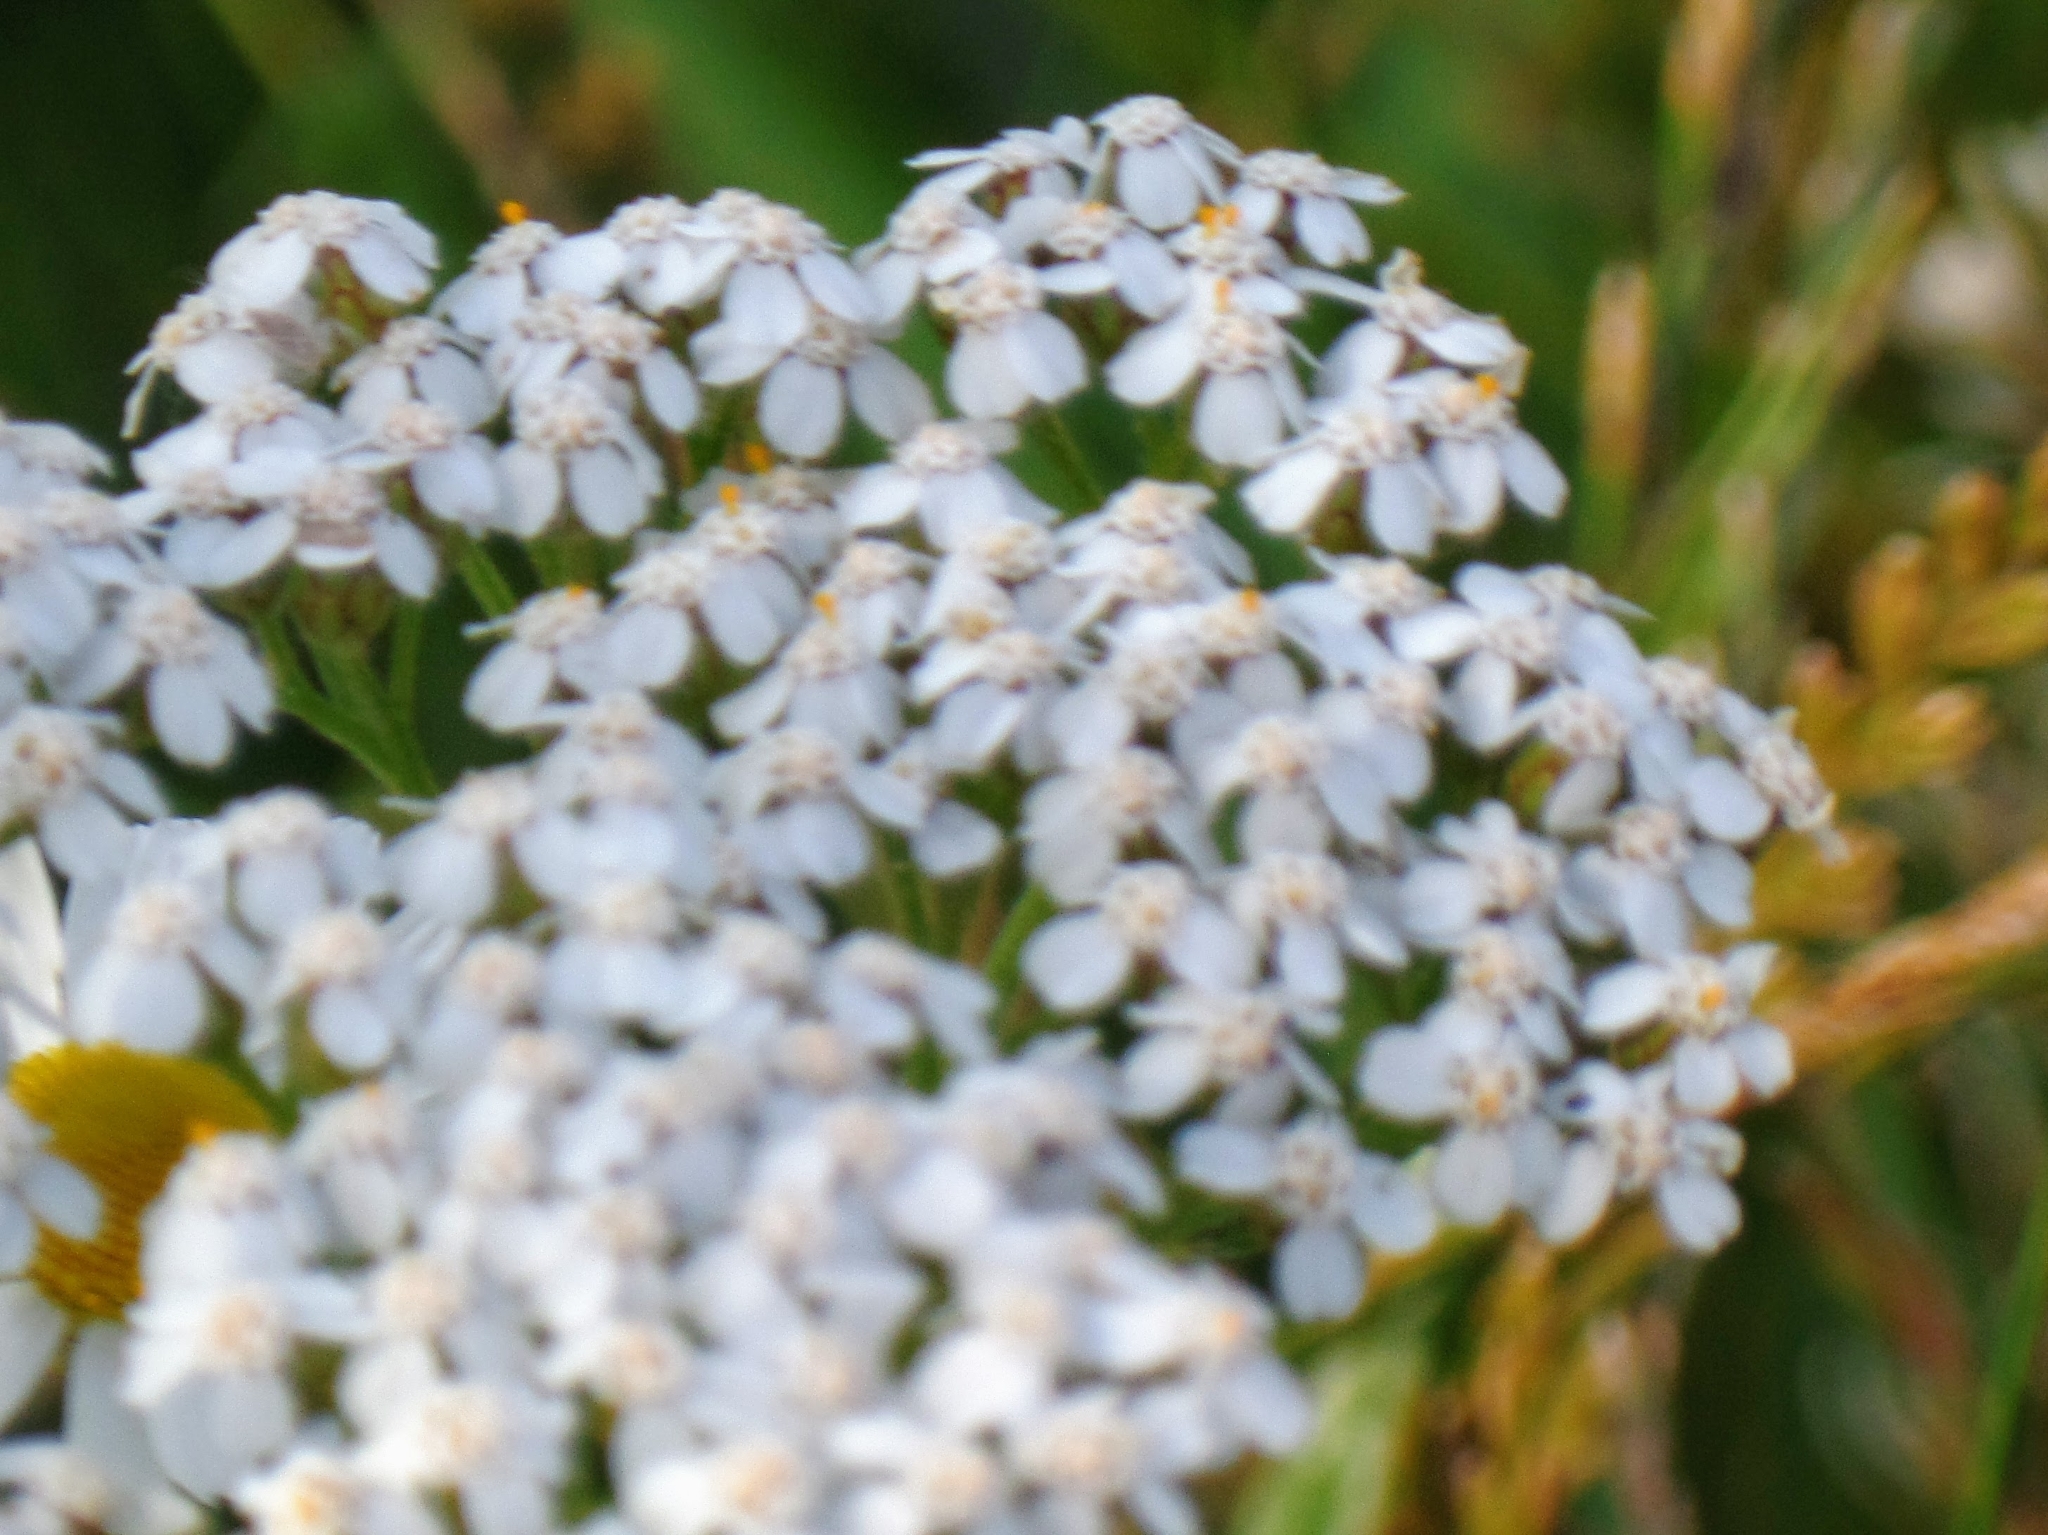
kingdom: Plantae
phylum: Tracheophyta
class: Magnoliopsida
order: Asterales
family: Asteraceae
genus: Achillea
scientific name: Achillea millefolium
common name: Yarrow
